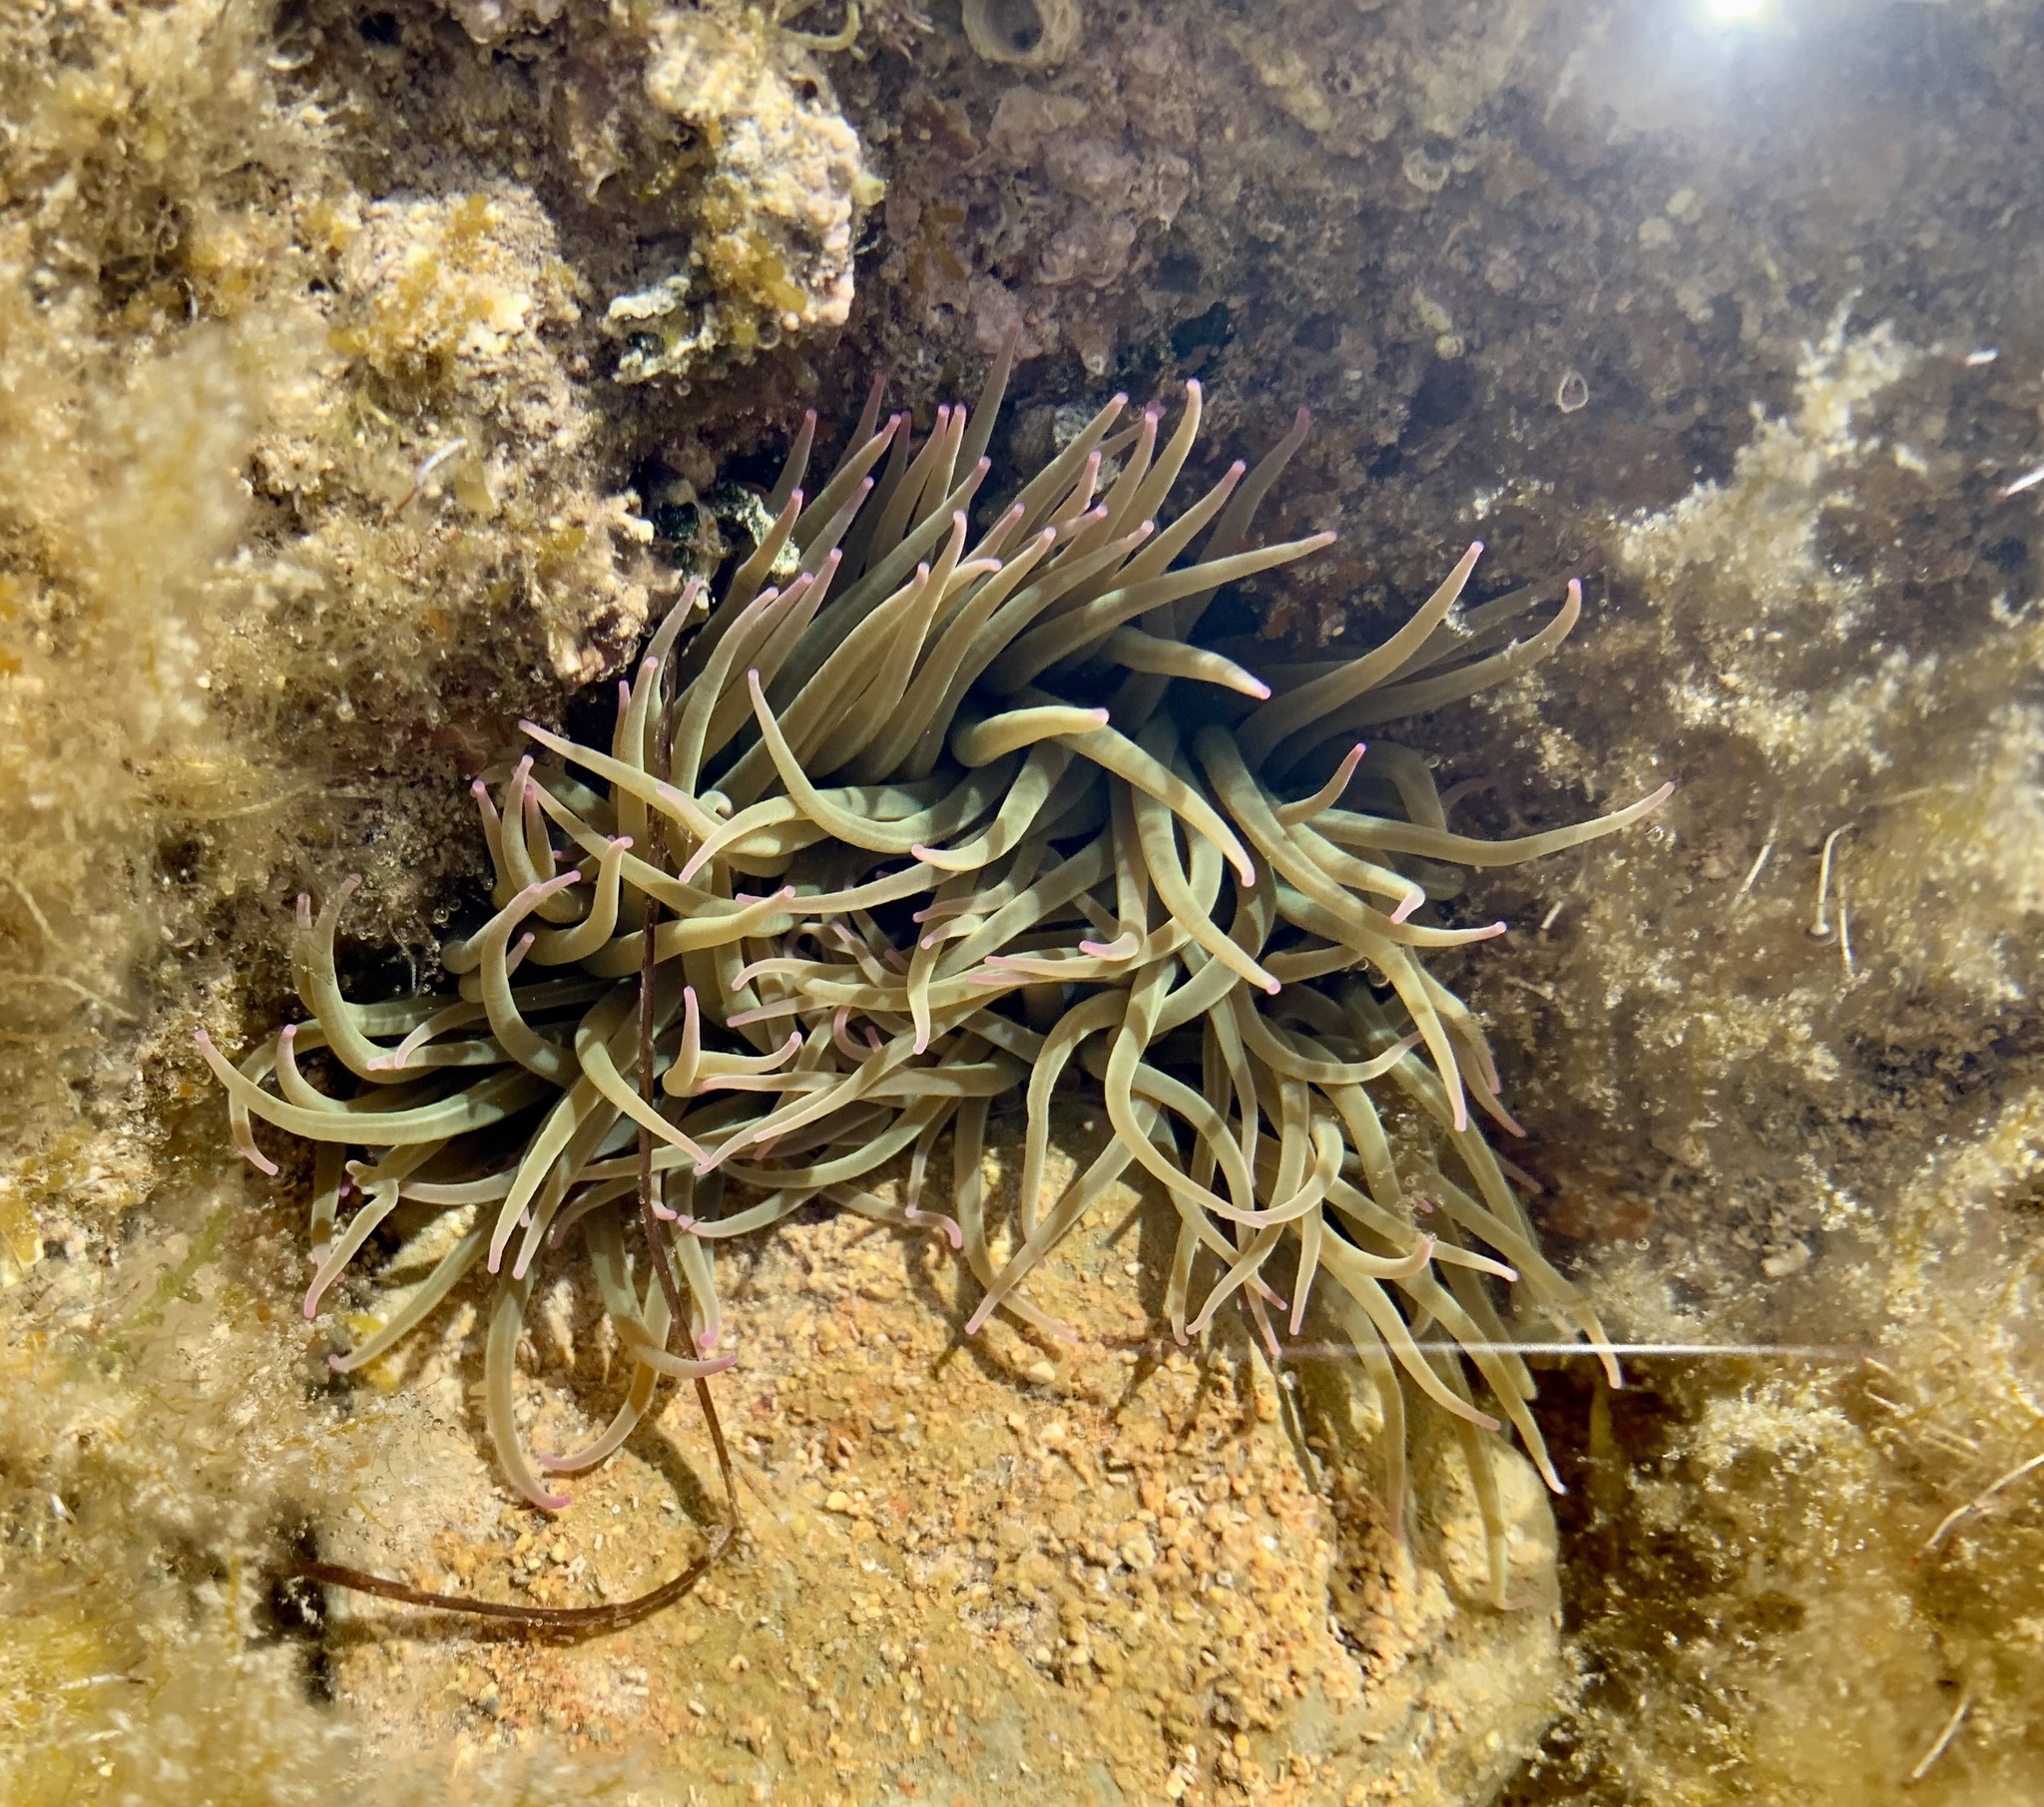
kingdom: Animalia
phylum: Cnidaria
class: Anthozoa
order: Actiniaria
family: Actiniidae
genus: Anemonia
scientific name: Anemonia viridis
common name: Snakelocks anemone
